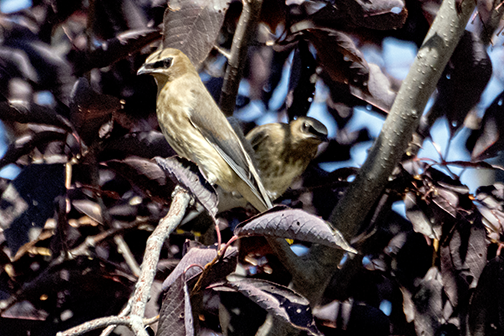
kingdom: Animalia
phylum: Chordata
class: Aves
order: Passeriformes
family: Bombycillidae
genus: Bombycilla
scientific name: Bombycilla cedrorum
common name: Cedar waxwing
